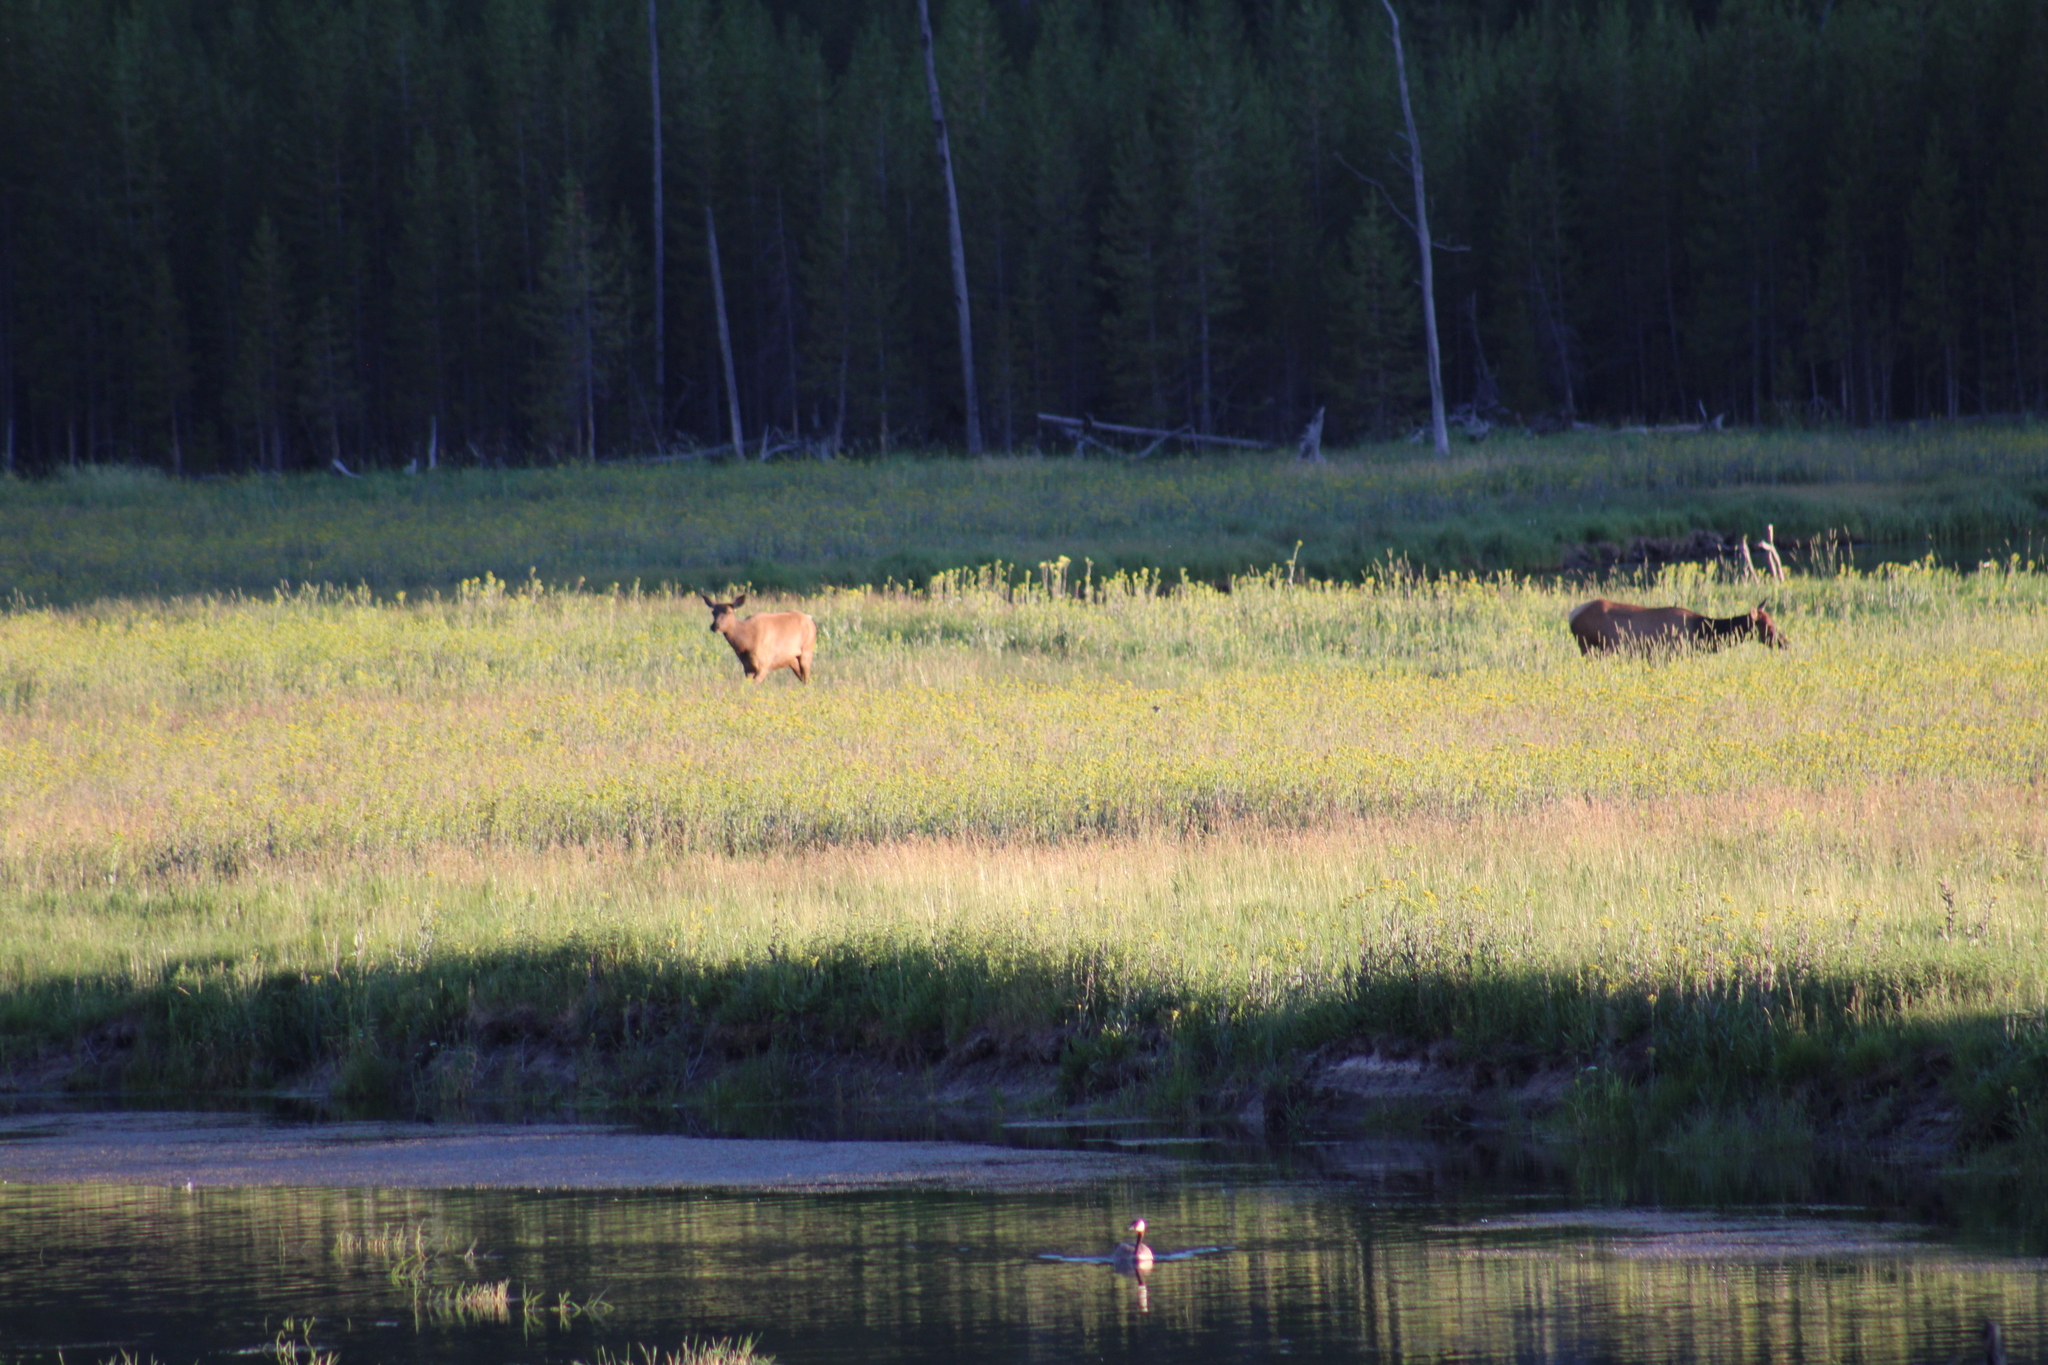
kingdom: Animalia
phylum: Chordata
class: Mammalia
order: Artiodactyla
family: Cervidae
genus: Cervus
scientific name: Cervus elaphus
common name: Red deer
